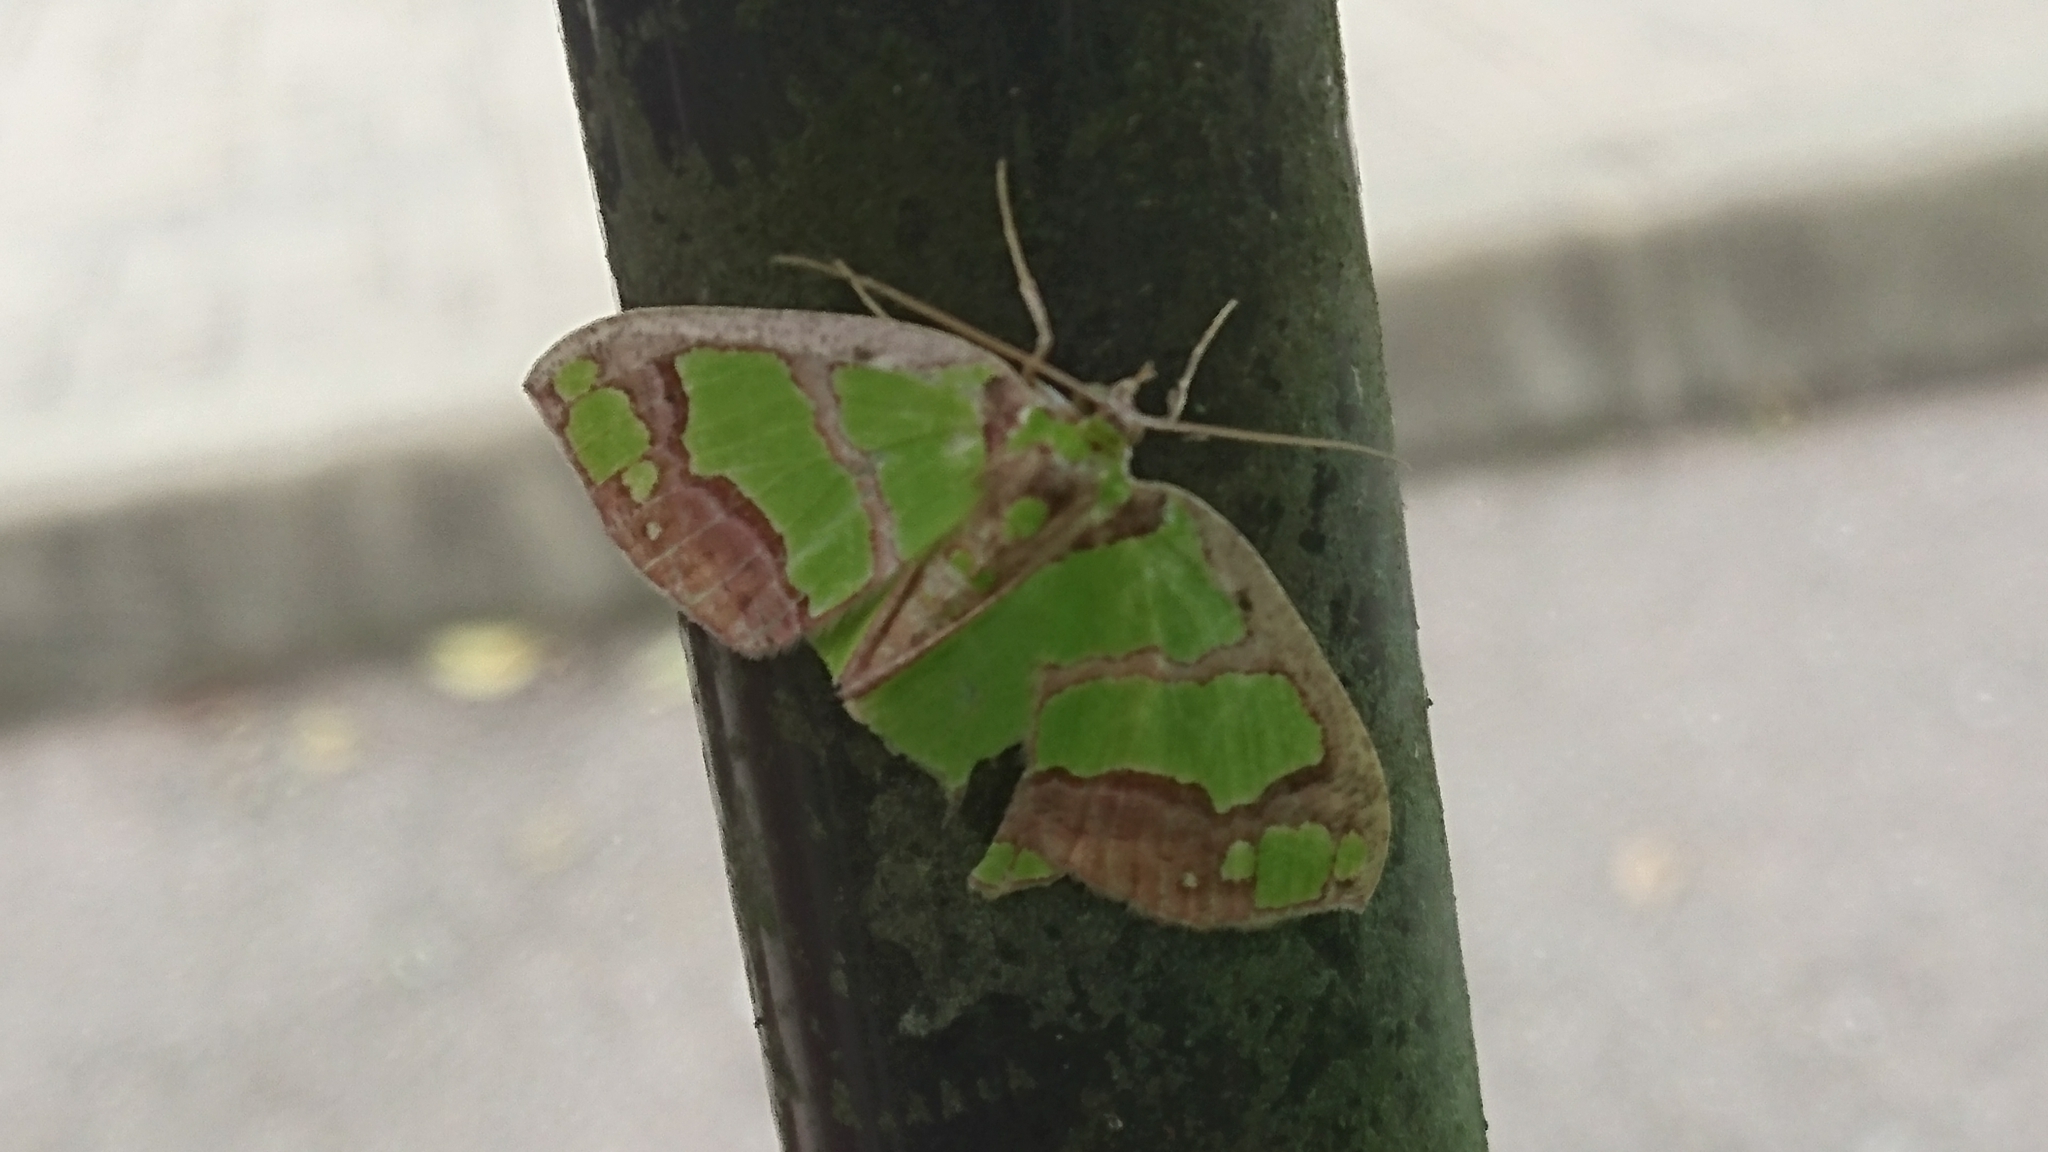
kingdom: Animalia
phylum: Arthropoda
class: Insecta
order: Lepidoptera
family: Geometridae
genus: Agathia
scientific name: Agathia visenda
